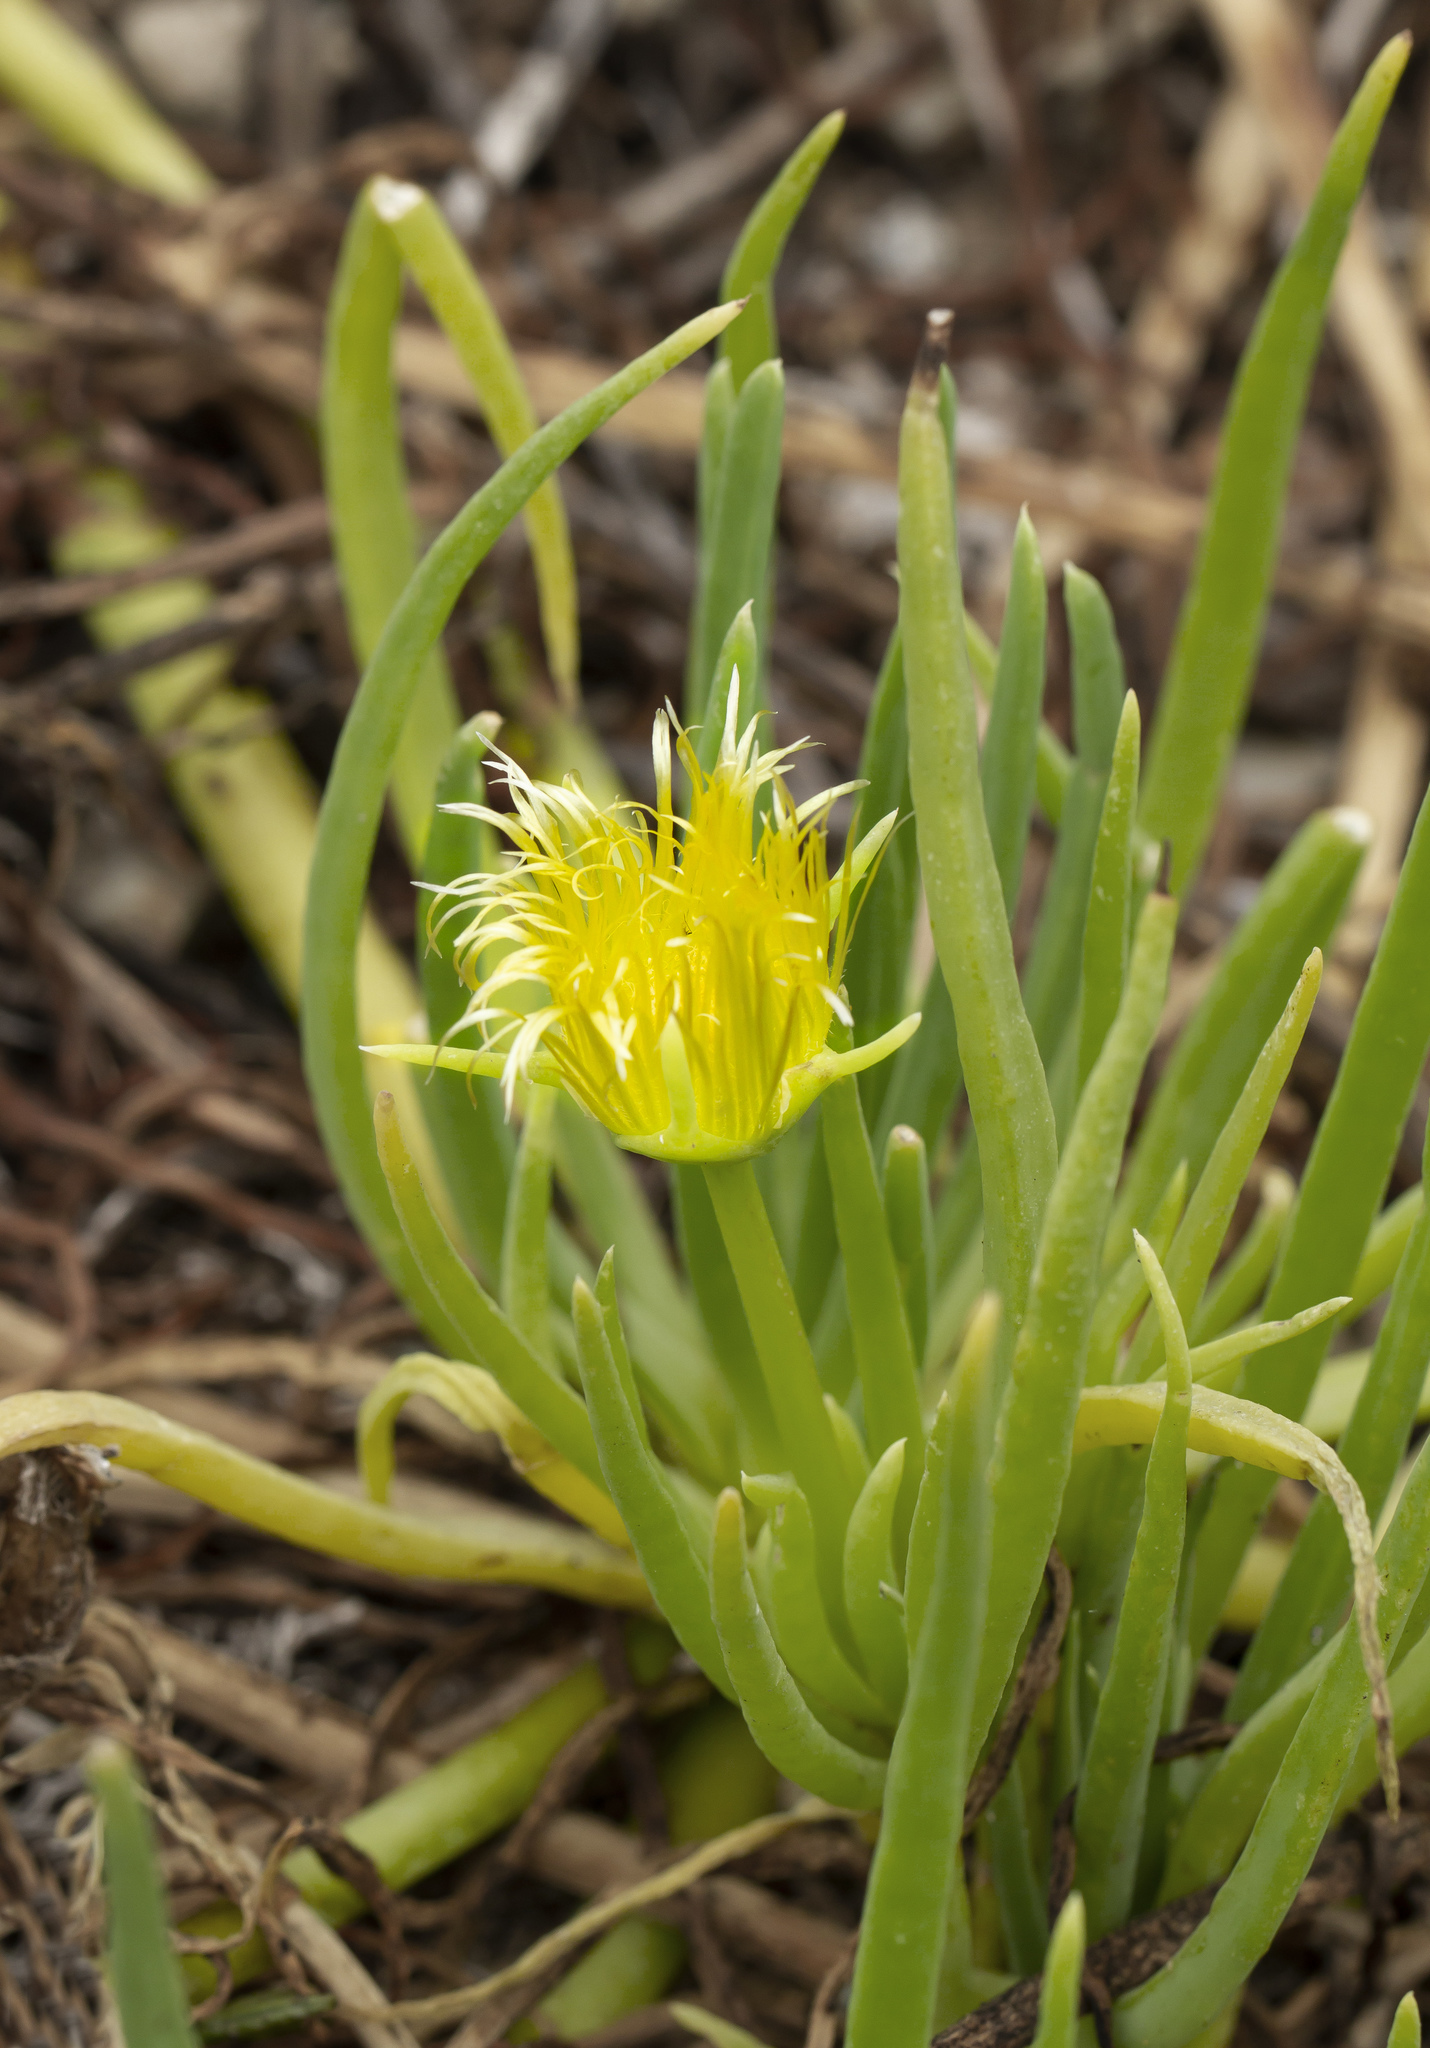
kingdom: Plantae
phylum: Tracheophyta
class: Magnoliopsida
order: Caryophyllales
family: Aizoaceae
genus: Conicosia
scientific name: Conicosia pugioniformis
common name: Narrow-leaved iceplant
